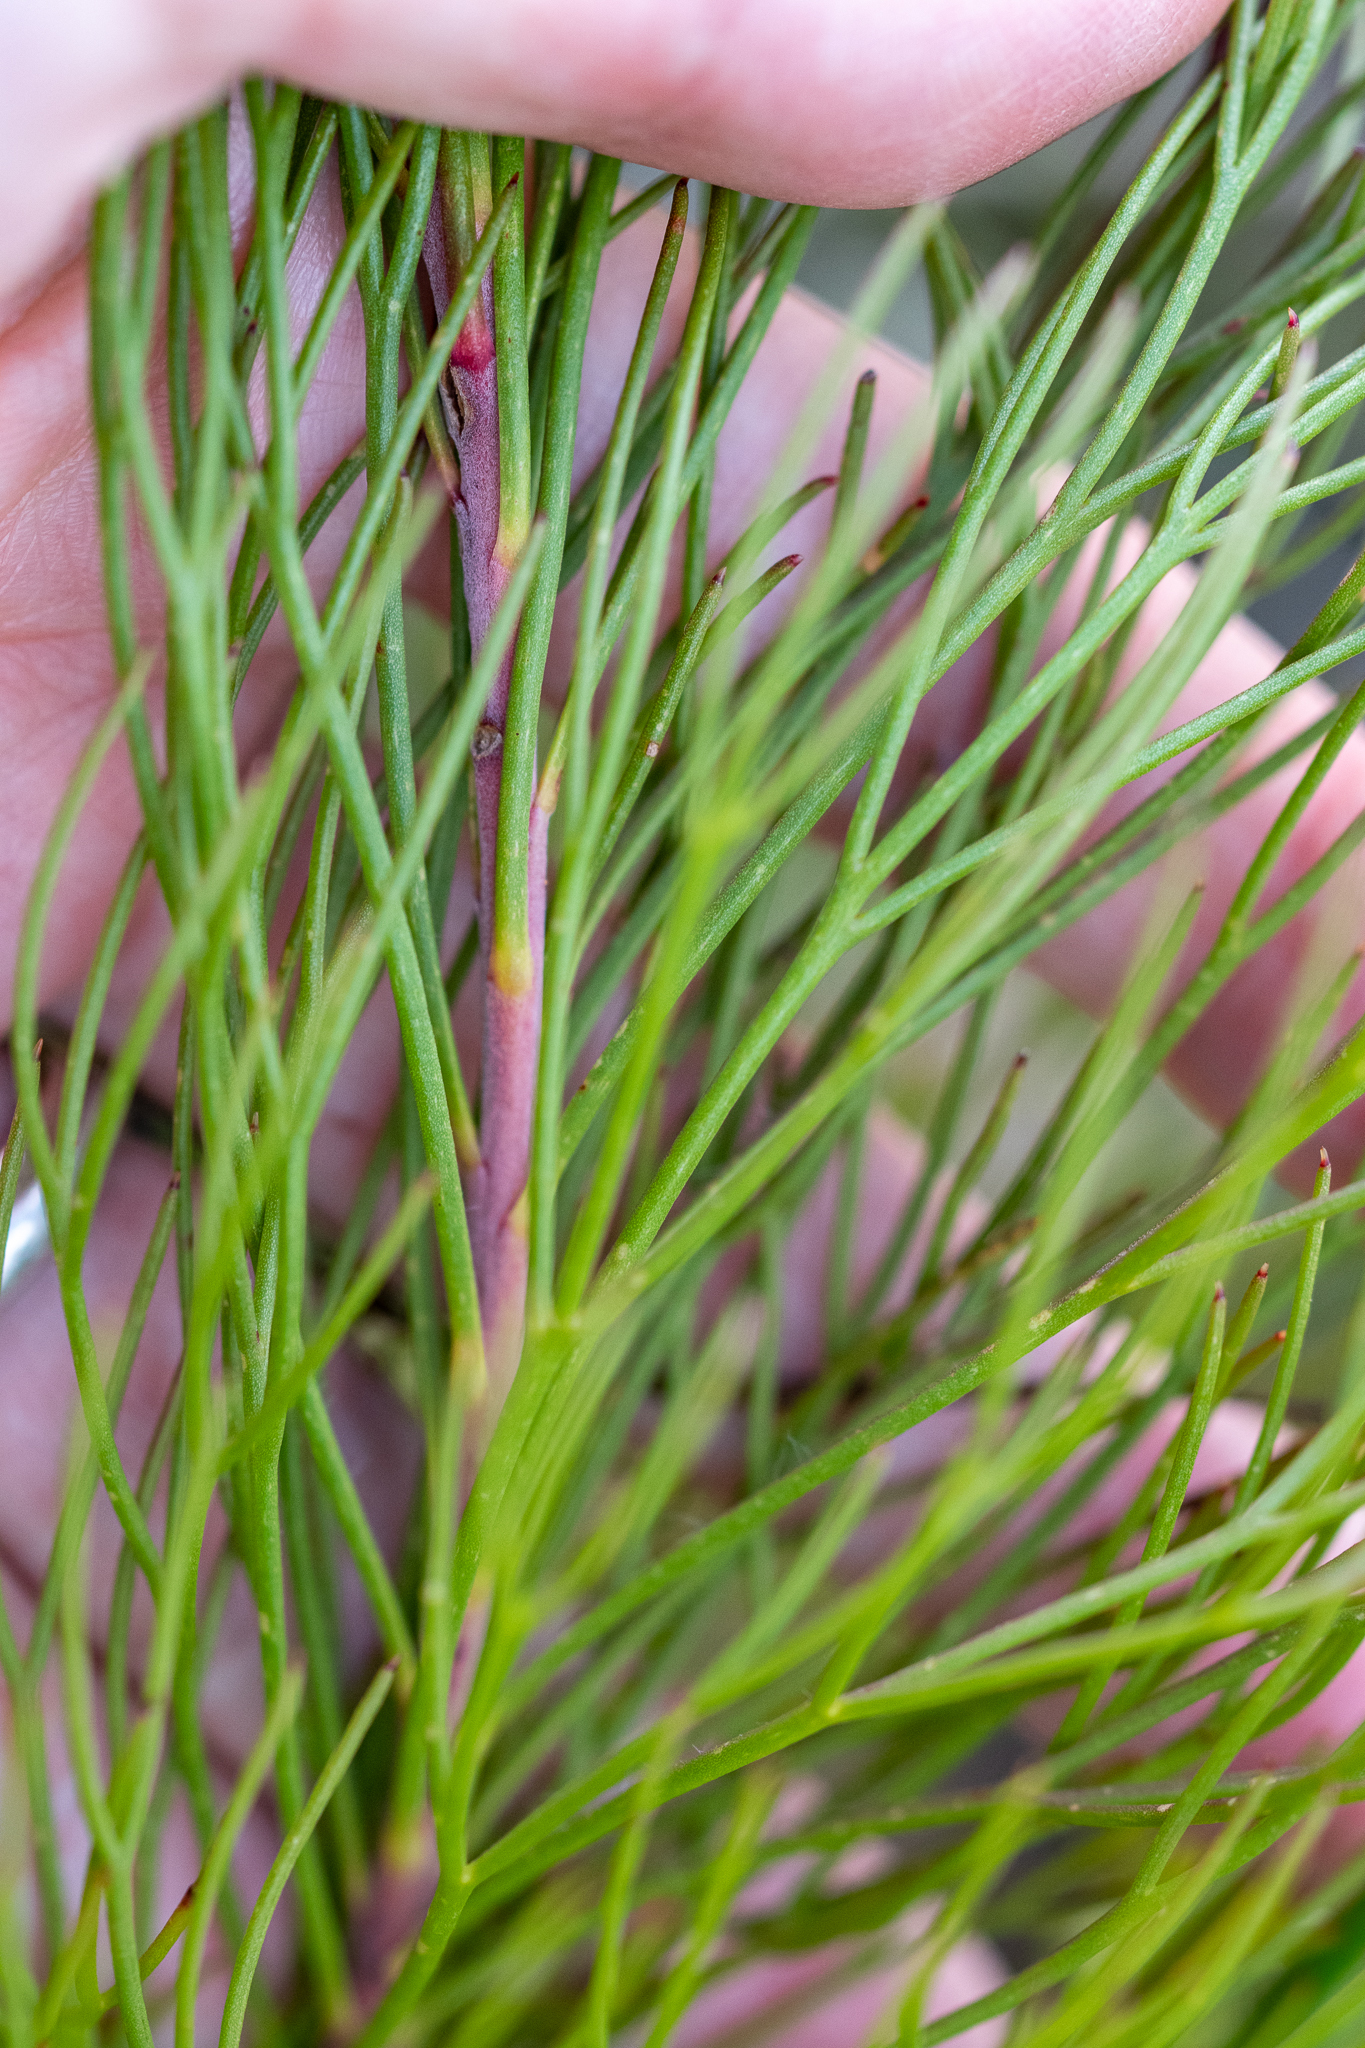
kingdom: Plantae
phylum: Tracheophyta
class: Magnoliopsida
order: Proteales
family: Proteaceae
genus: Serruria
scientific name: Serruria heterophylla
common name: Spindly spiderhead
